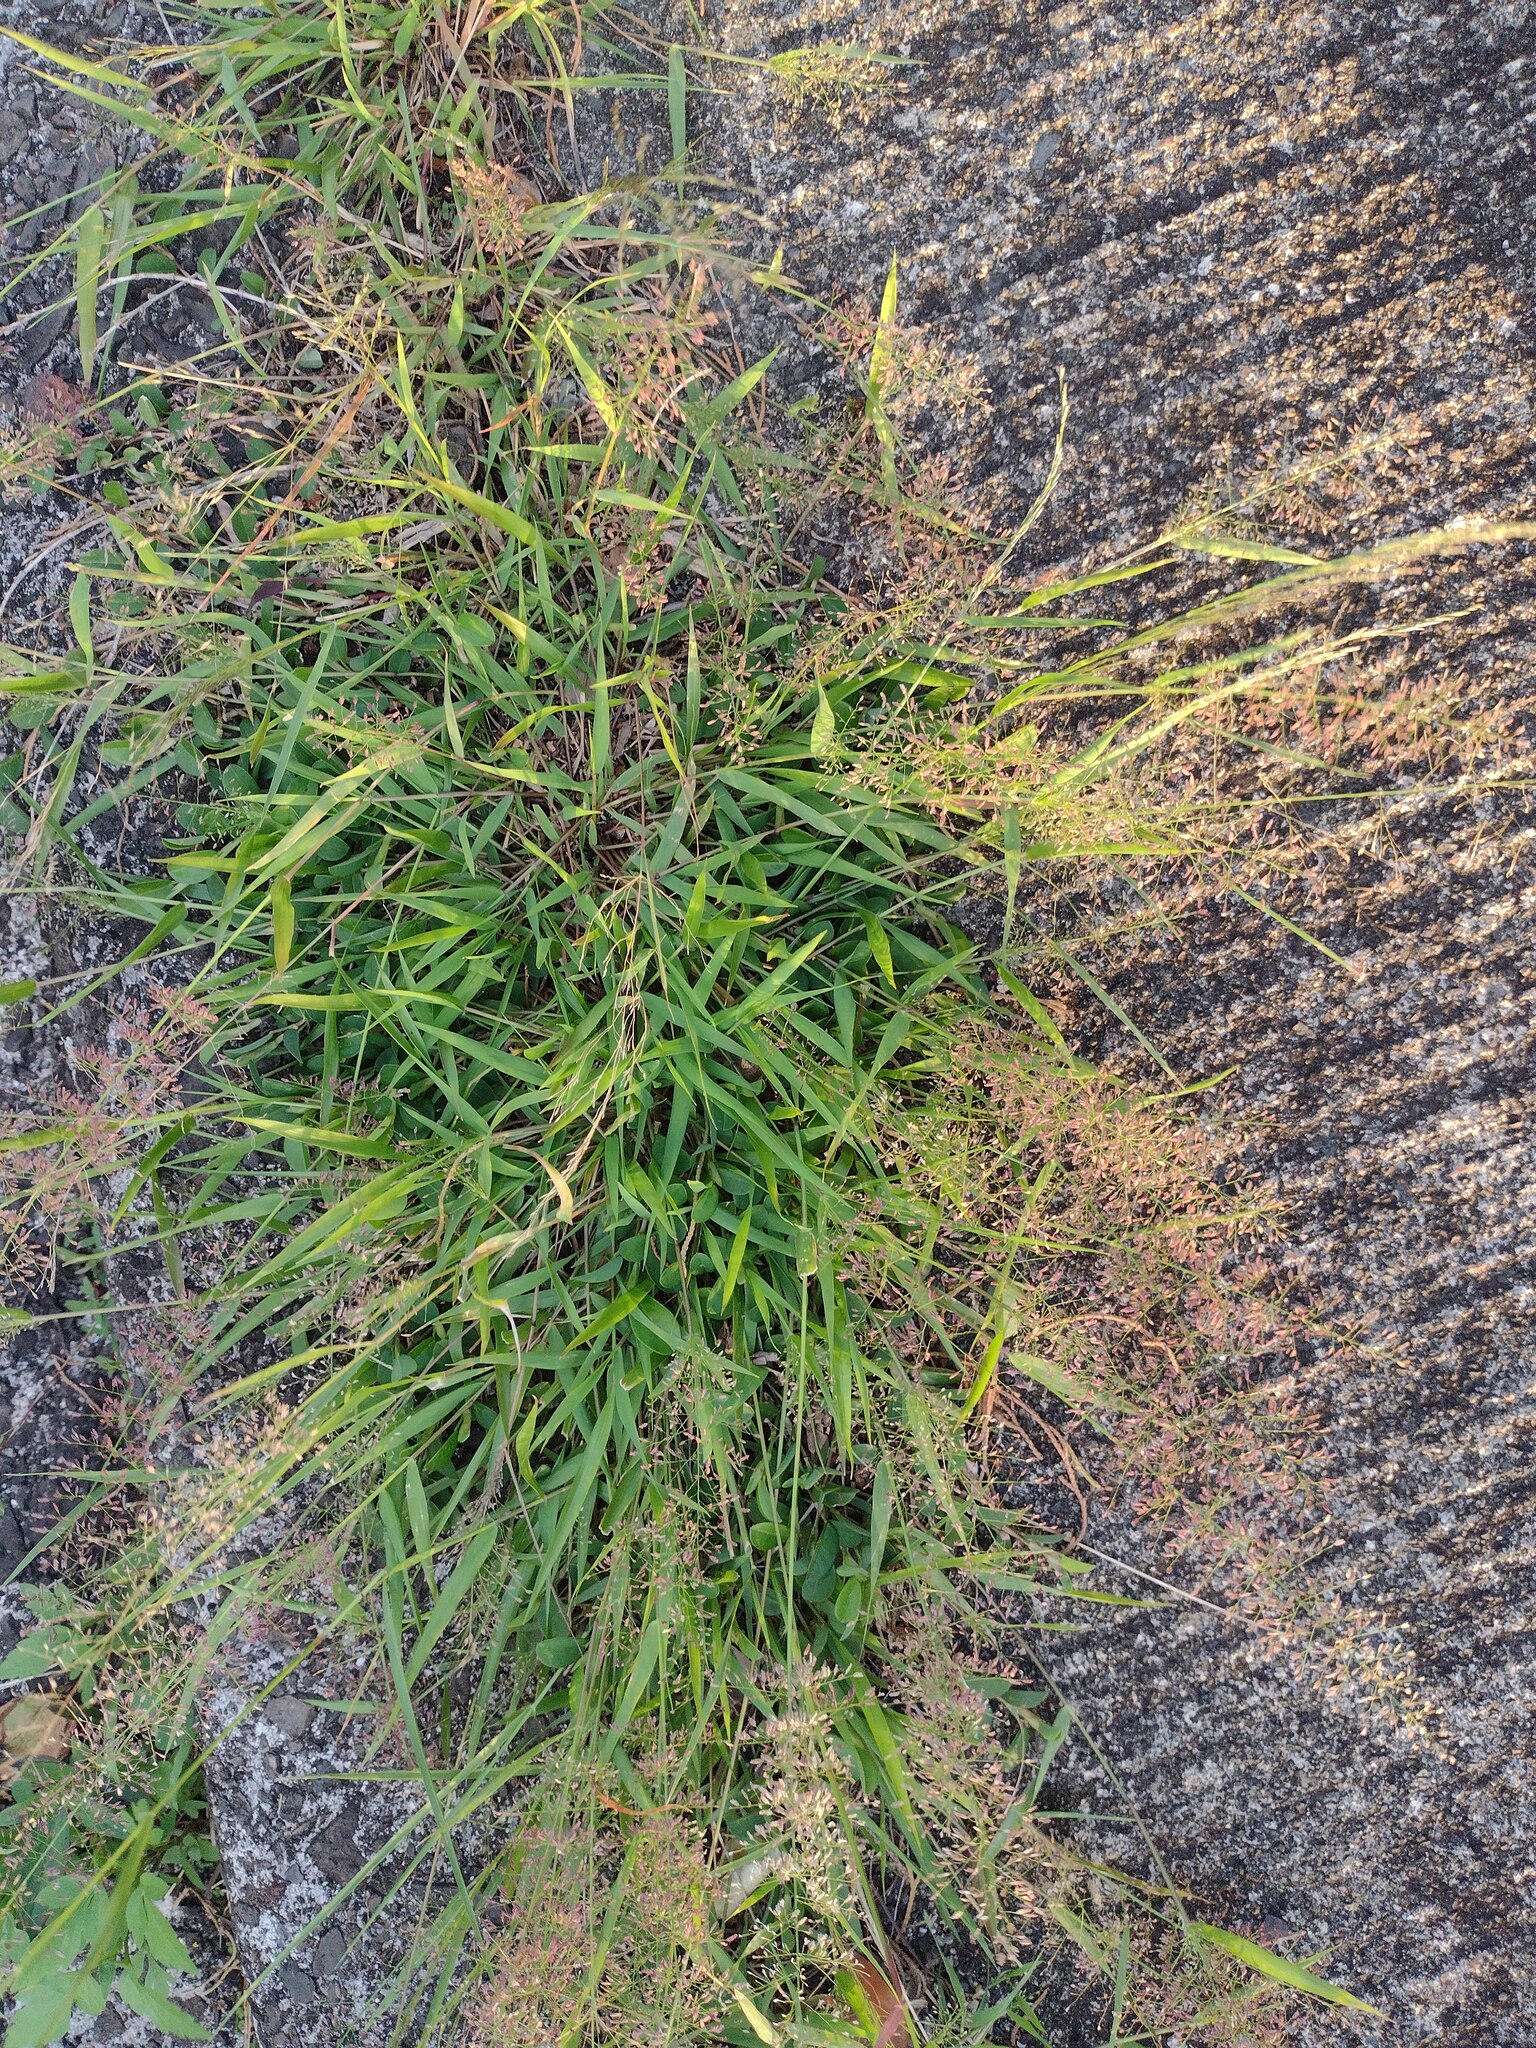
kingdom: Plantae
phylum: Tracheophyta
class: Liliopsida
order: Poales
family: Poaceae
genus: Eragrostis
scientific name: Eragrostis tenella
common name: Japanese lovegrass
